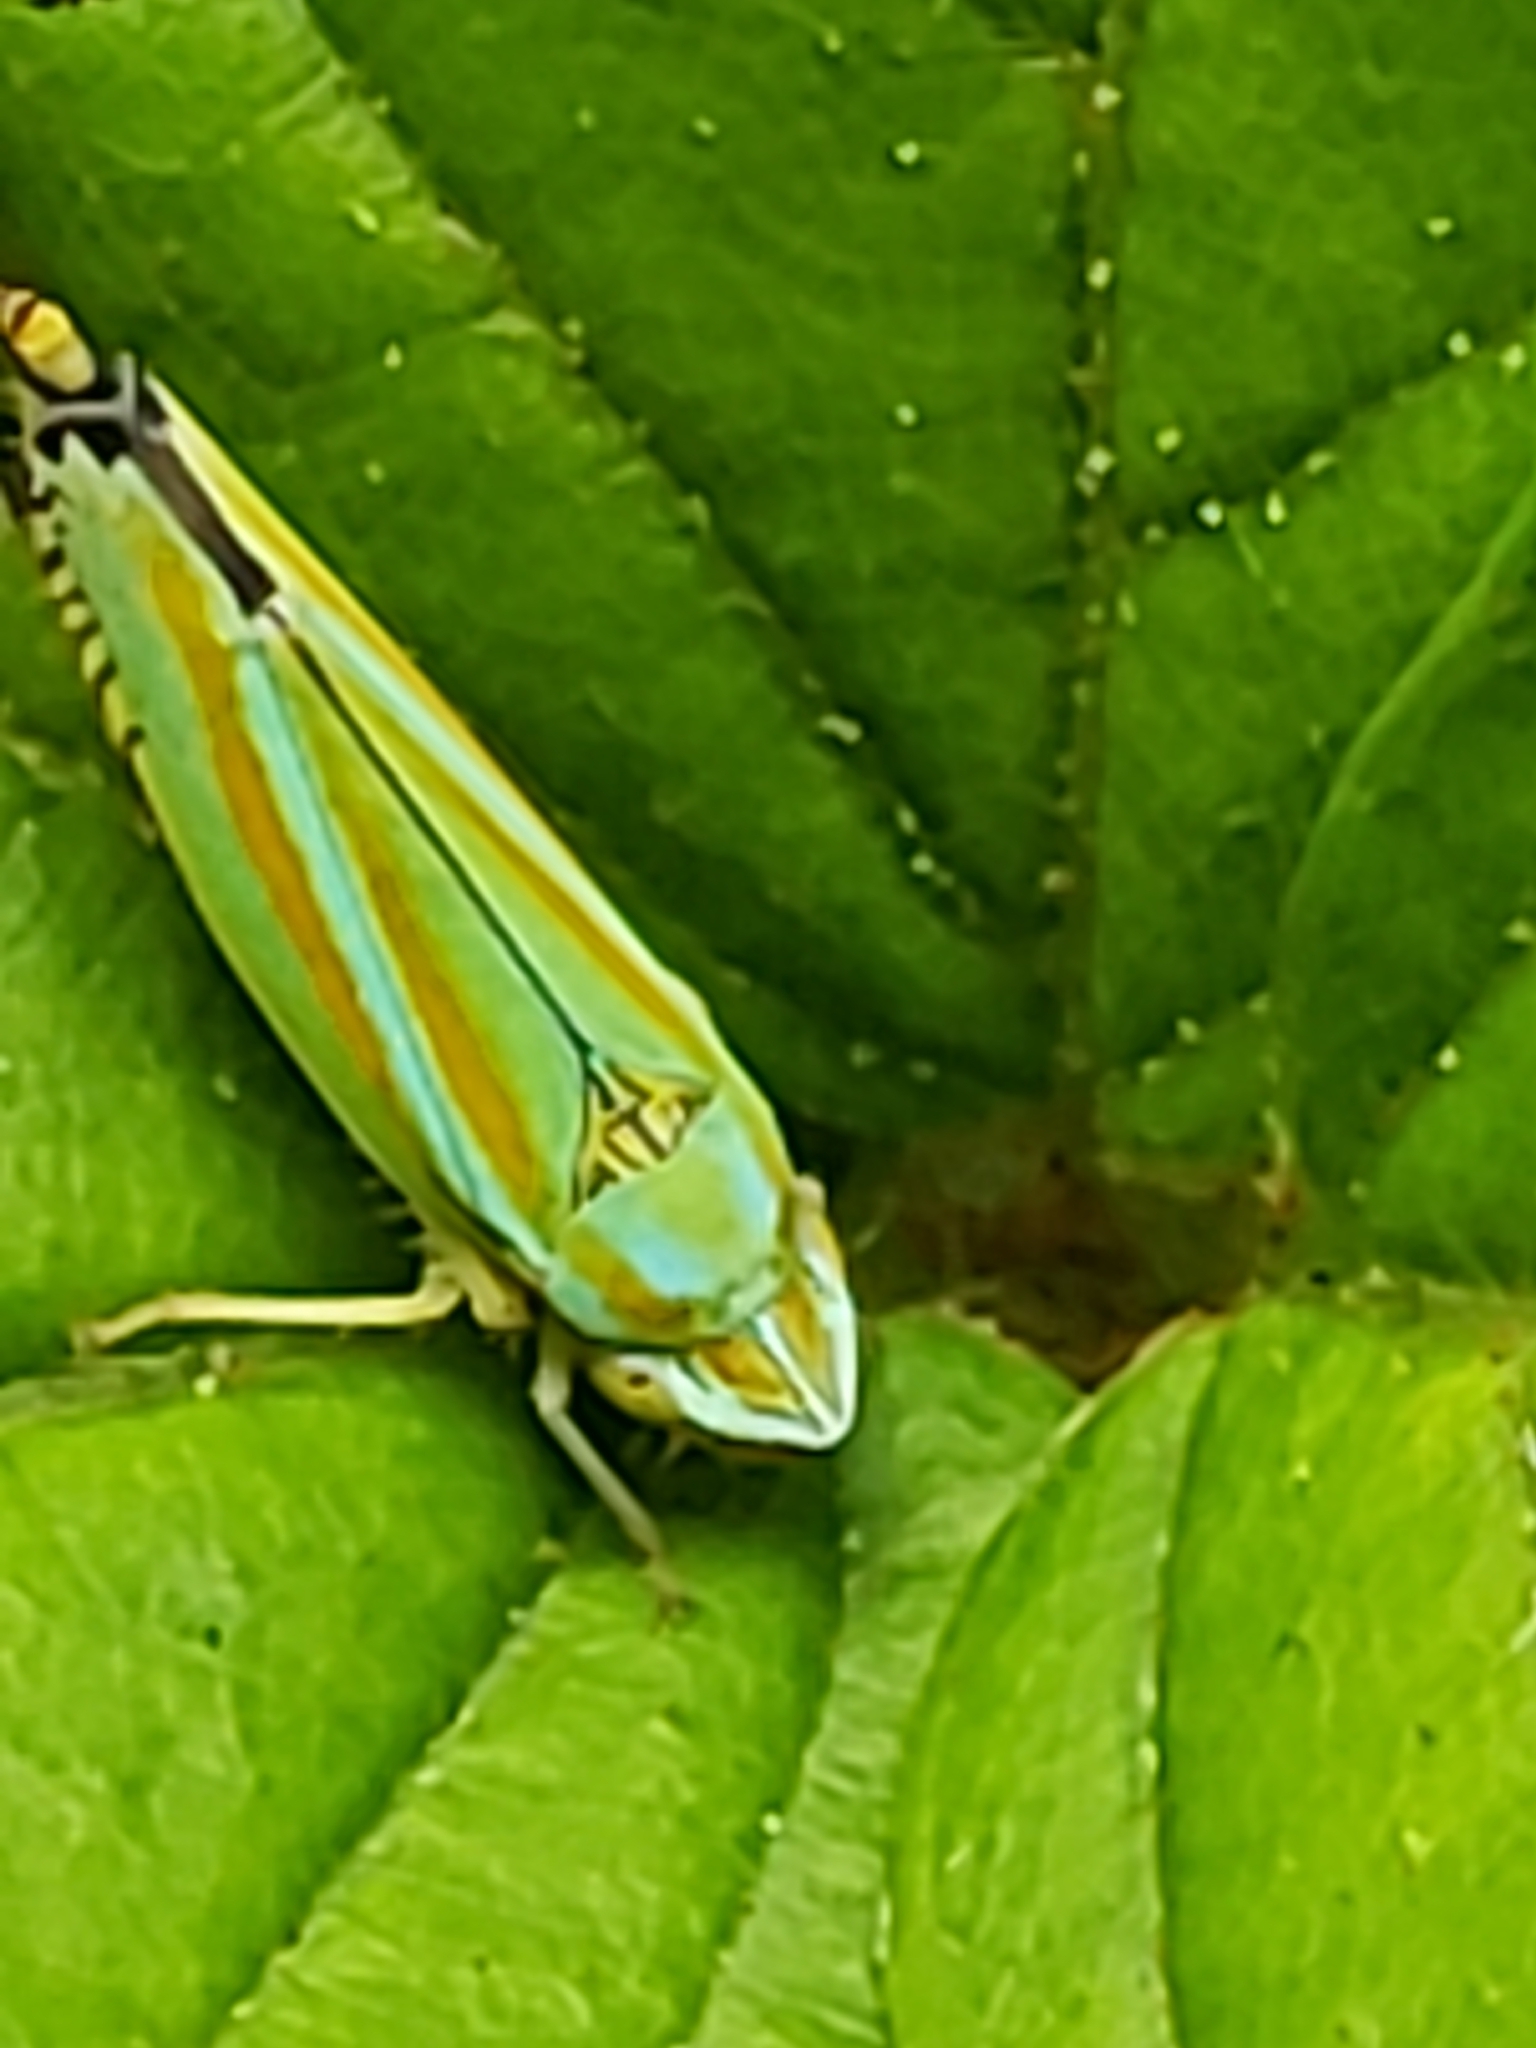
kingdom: Animalia
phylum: Arthropoda
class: Insecta
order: Hemiptera
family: Cicadellidae
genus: Graphocephala
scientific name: Graphocephala versuta
